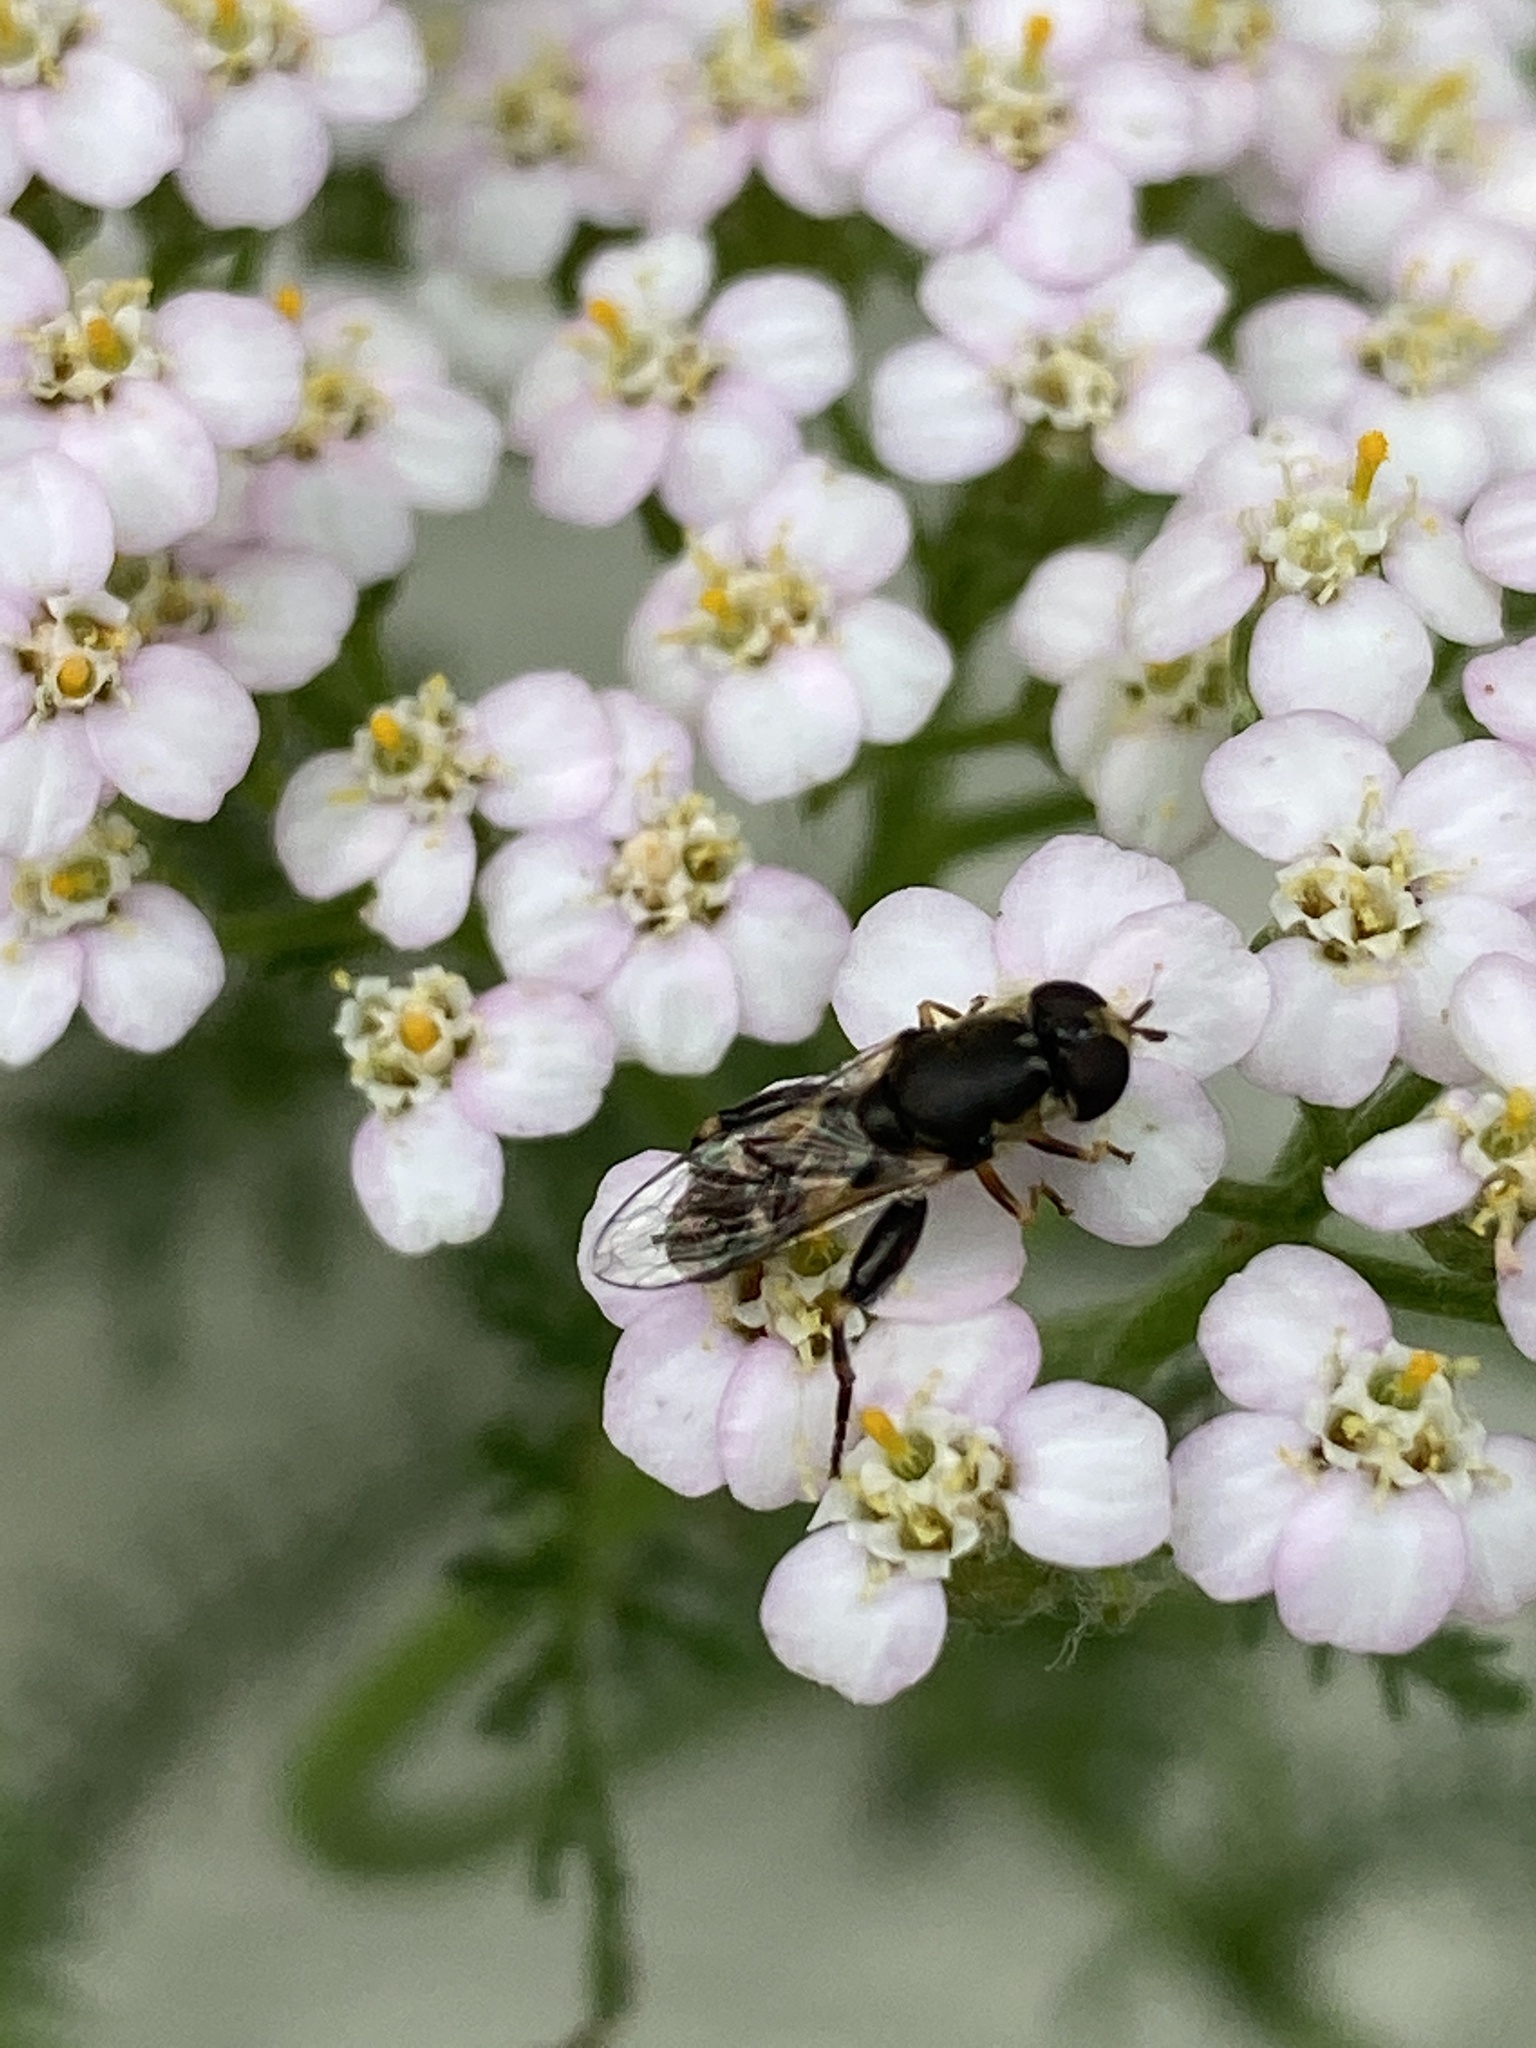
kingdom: Animalia
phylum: Arthropoda
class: Insecta
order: Diptera
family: Syrphidae
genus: Syritta
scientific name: Syritta pipiens
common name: Hover fly
